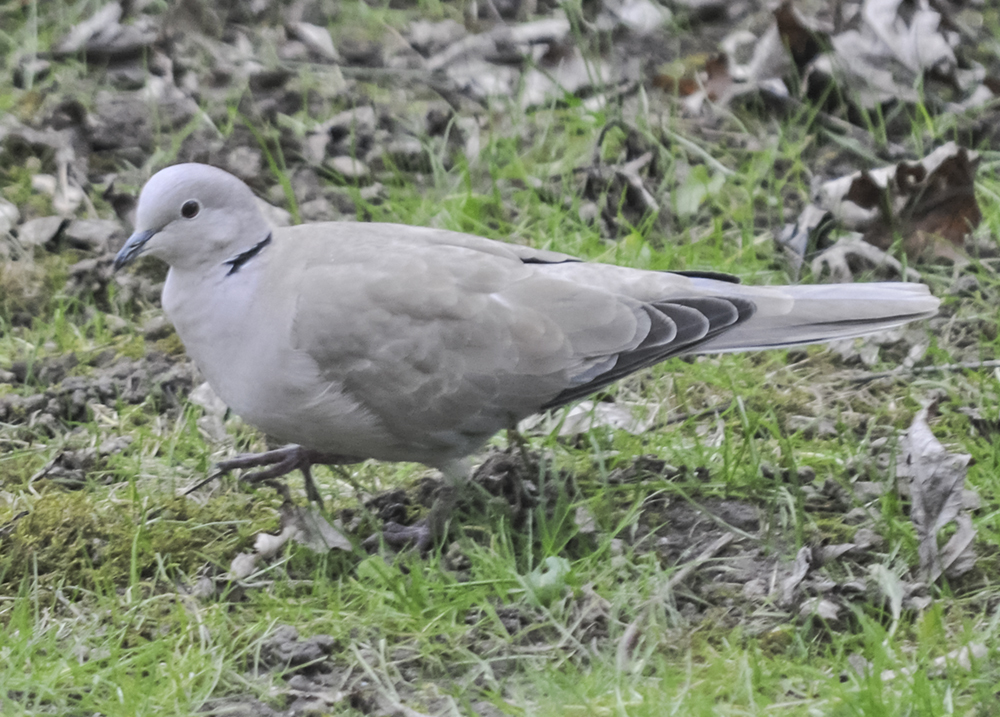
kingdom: Animalia
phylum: Chordata
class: Aves
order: Columbiformes
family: Columbidae
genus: Streptopelia
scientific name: Streptopelia decaocto
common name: Eurasian collared dove
